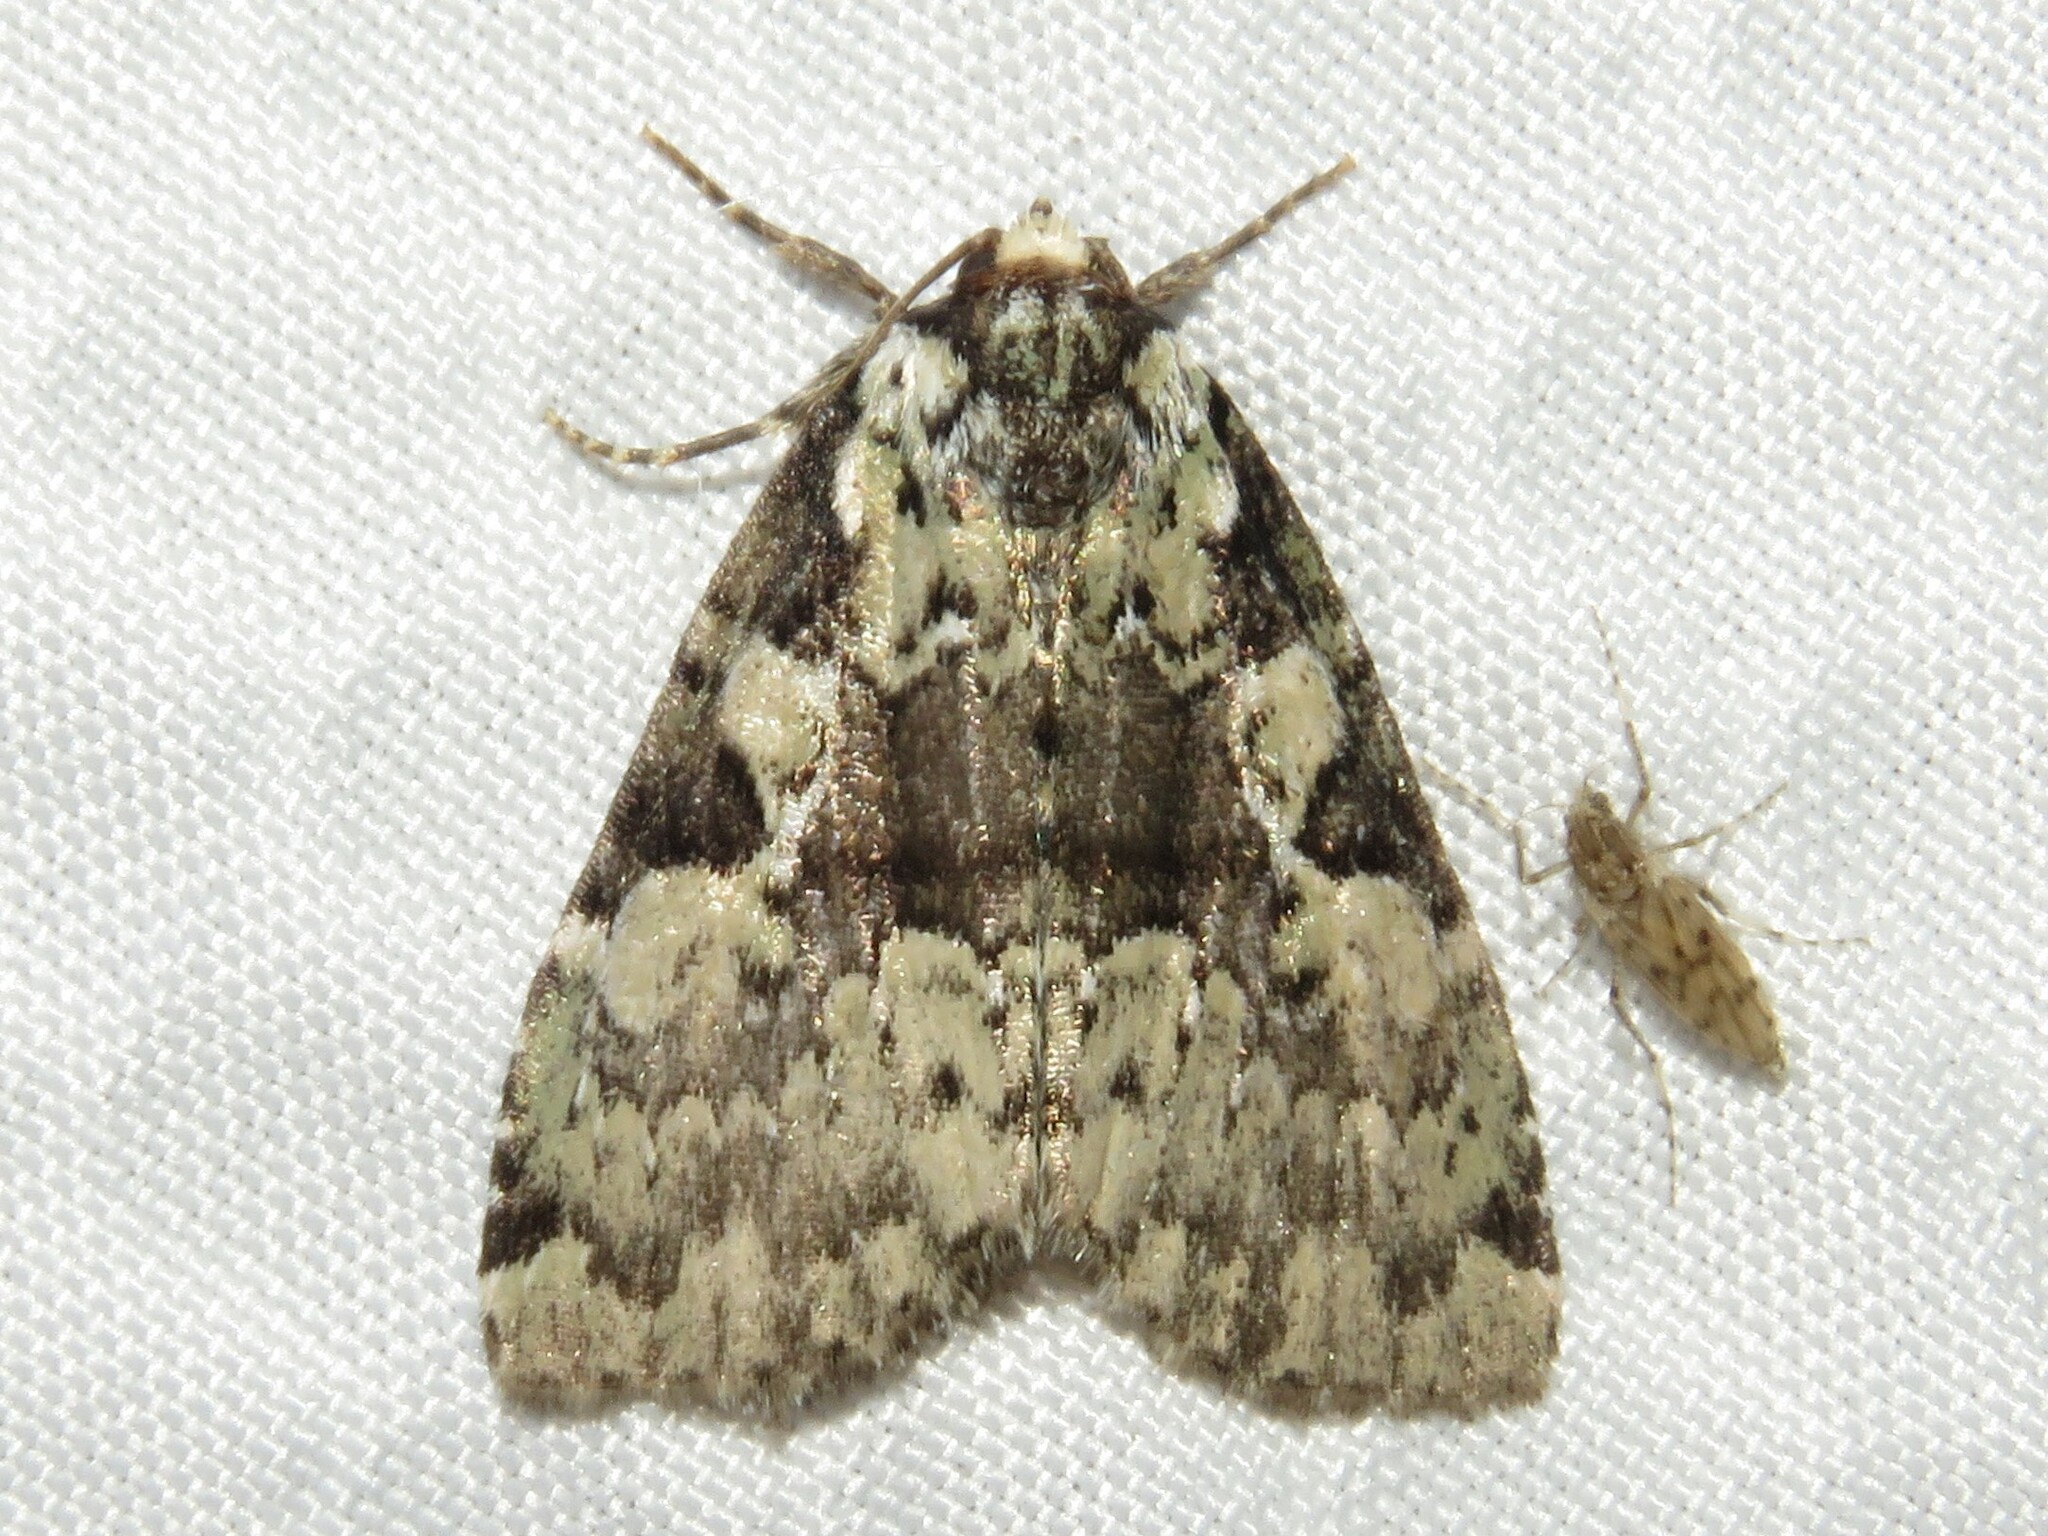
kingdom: Animalia
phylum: Arthropoda
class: Insecta
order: Lepidoptera
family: Noctuidae
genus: Leuconycta
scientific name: Leuconycta lepidula
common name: Marbled-green leuconycta moth
